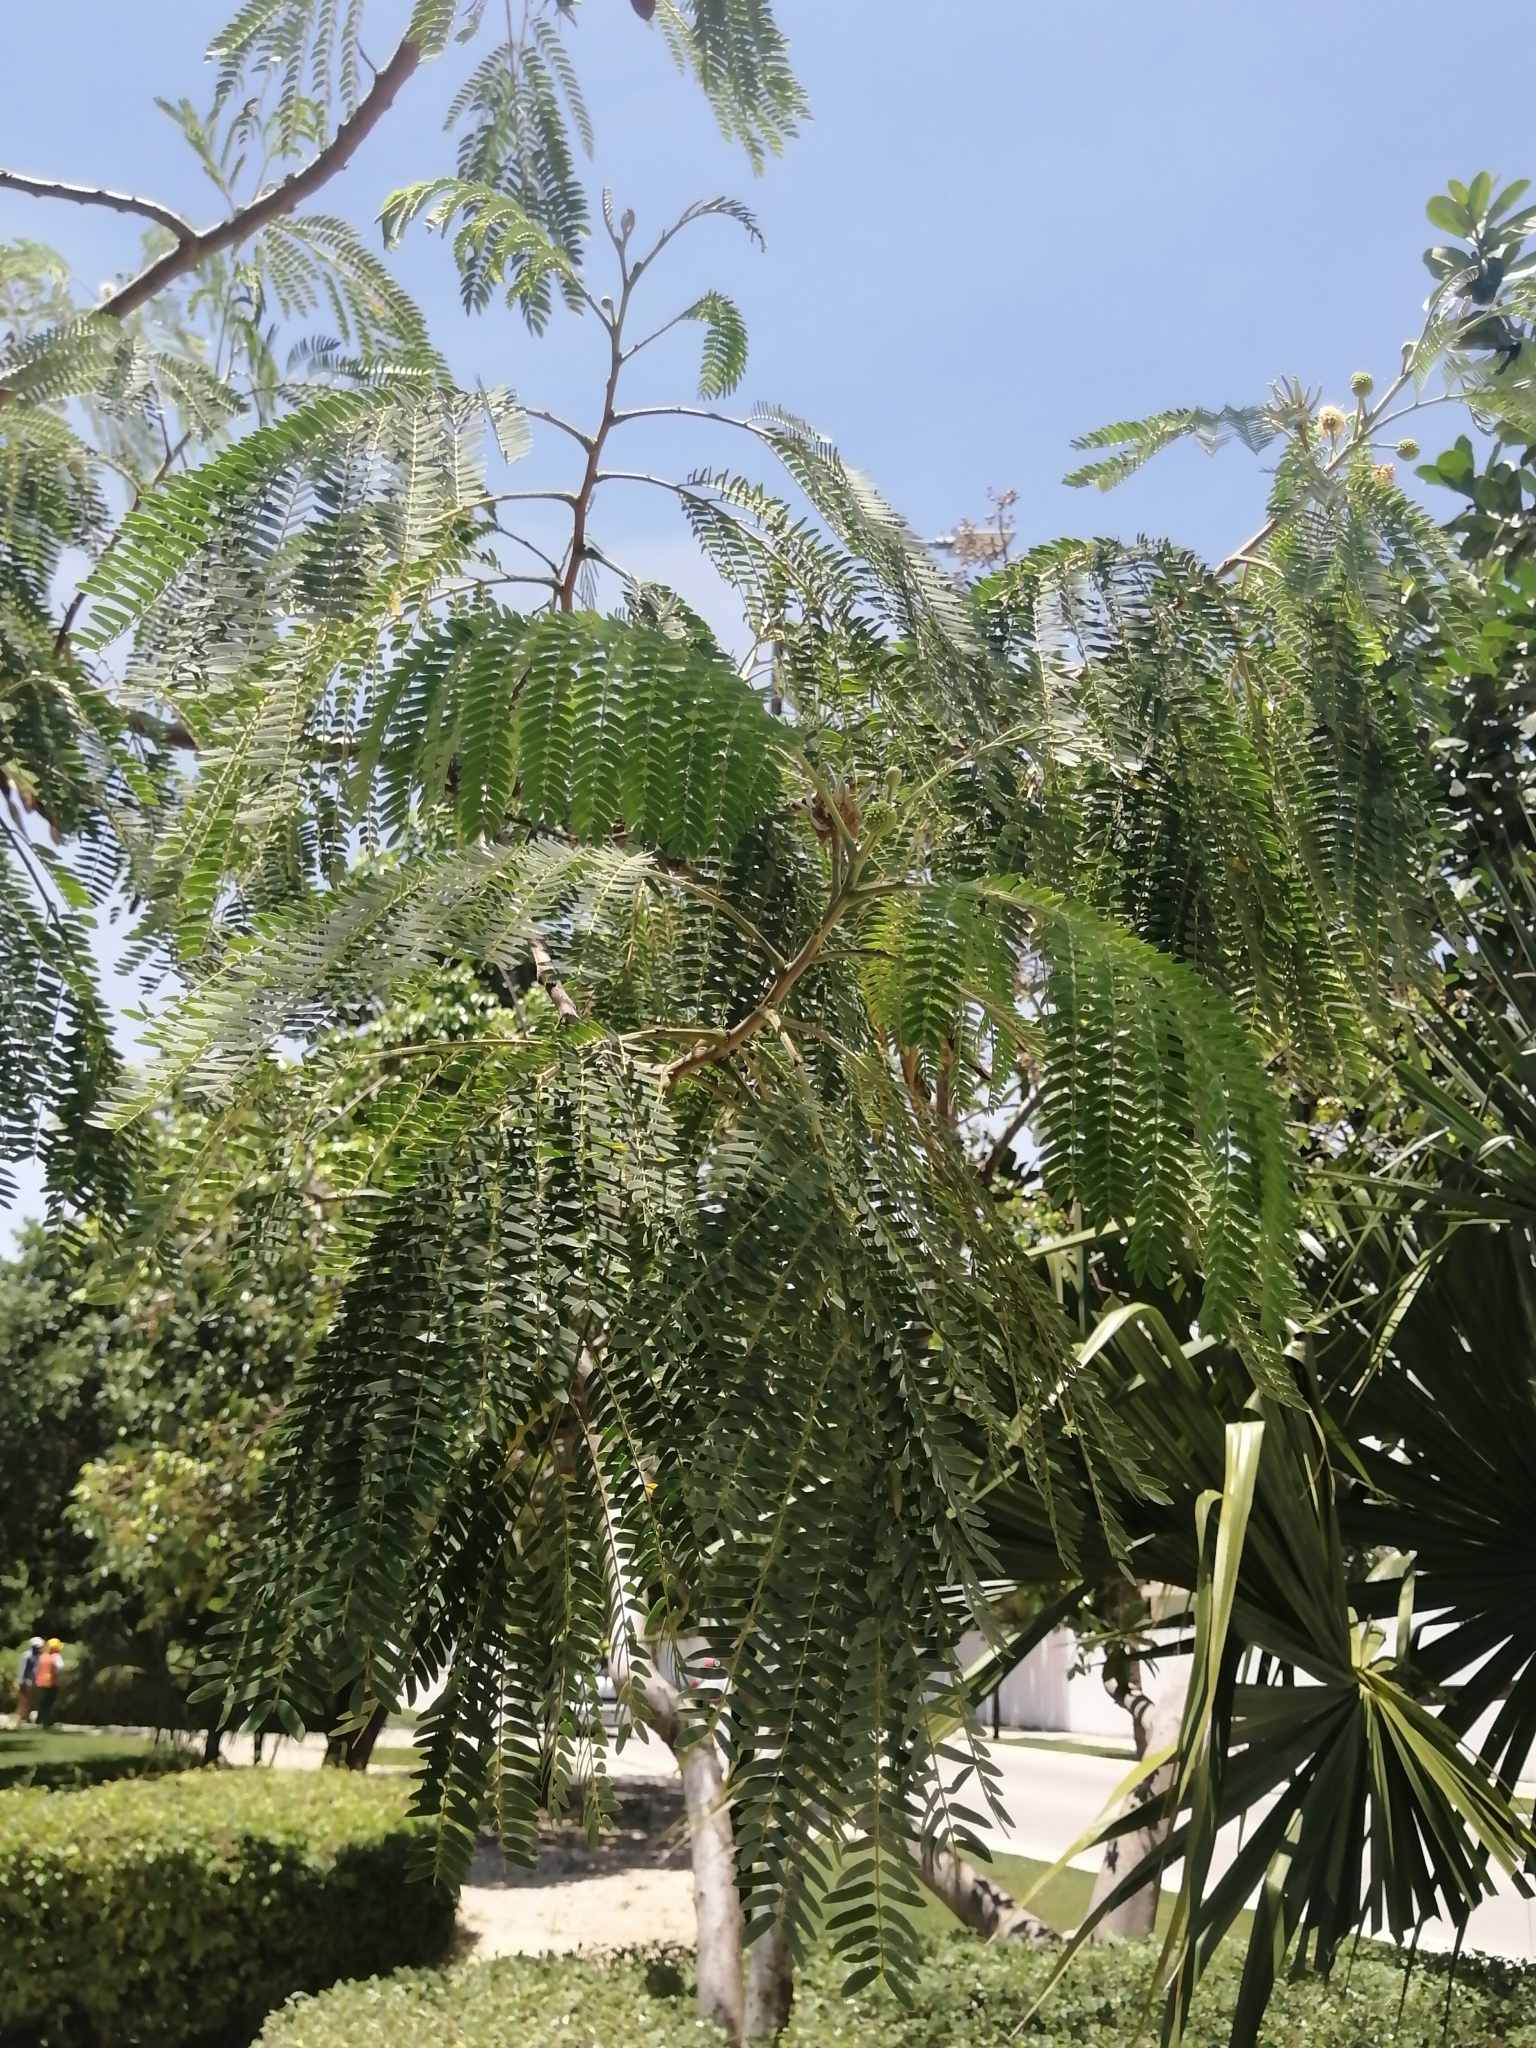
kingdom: Plantae
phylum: Tracheophyta
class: Magnoliopsida
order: Fabales
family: Fabaceae
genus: Leucaena
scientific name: Leucaena leucocephala
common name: White leadtree
